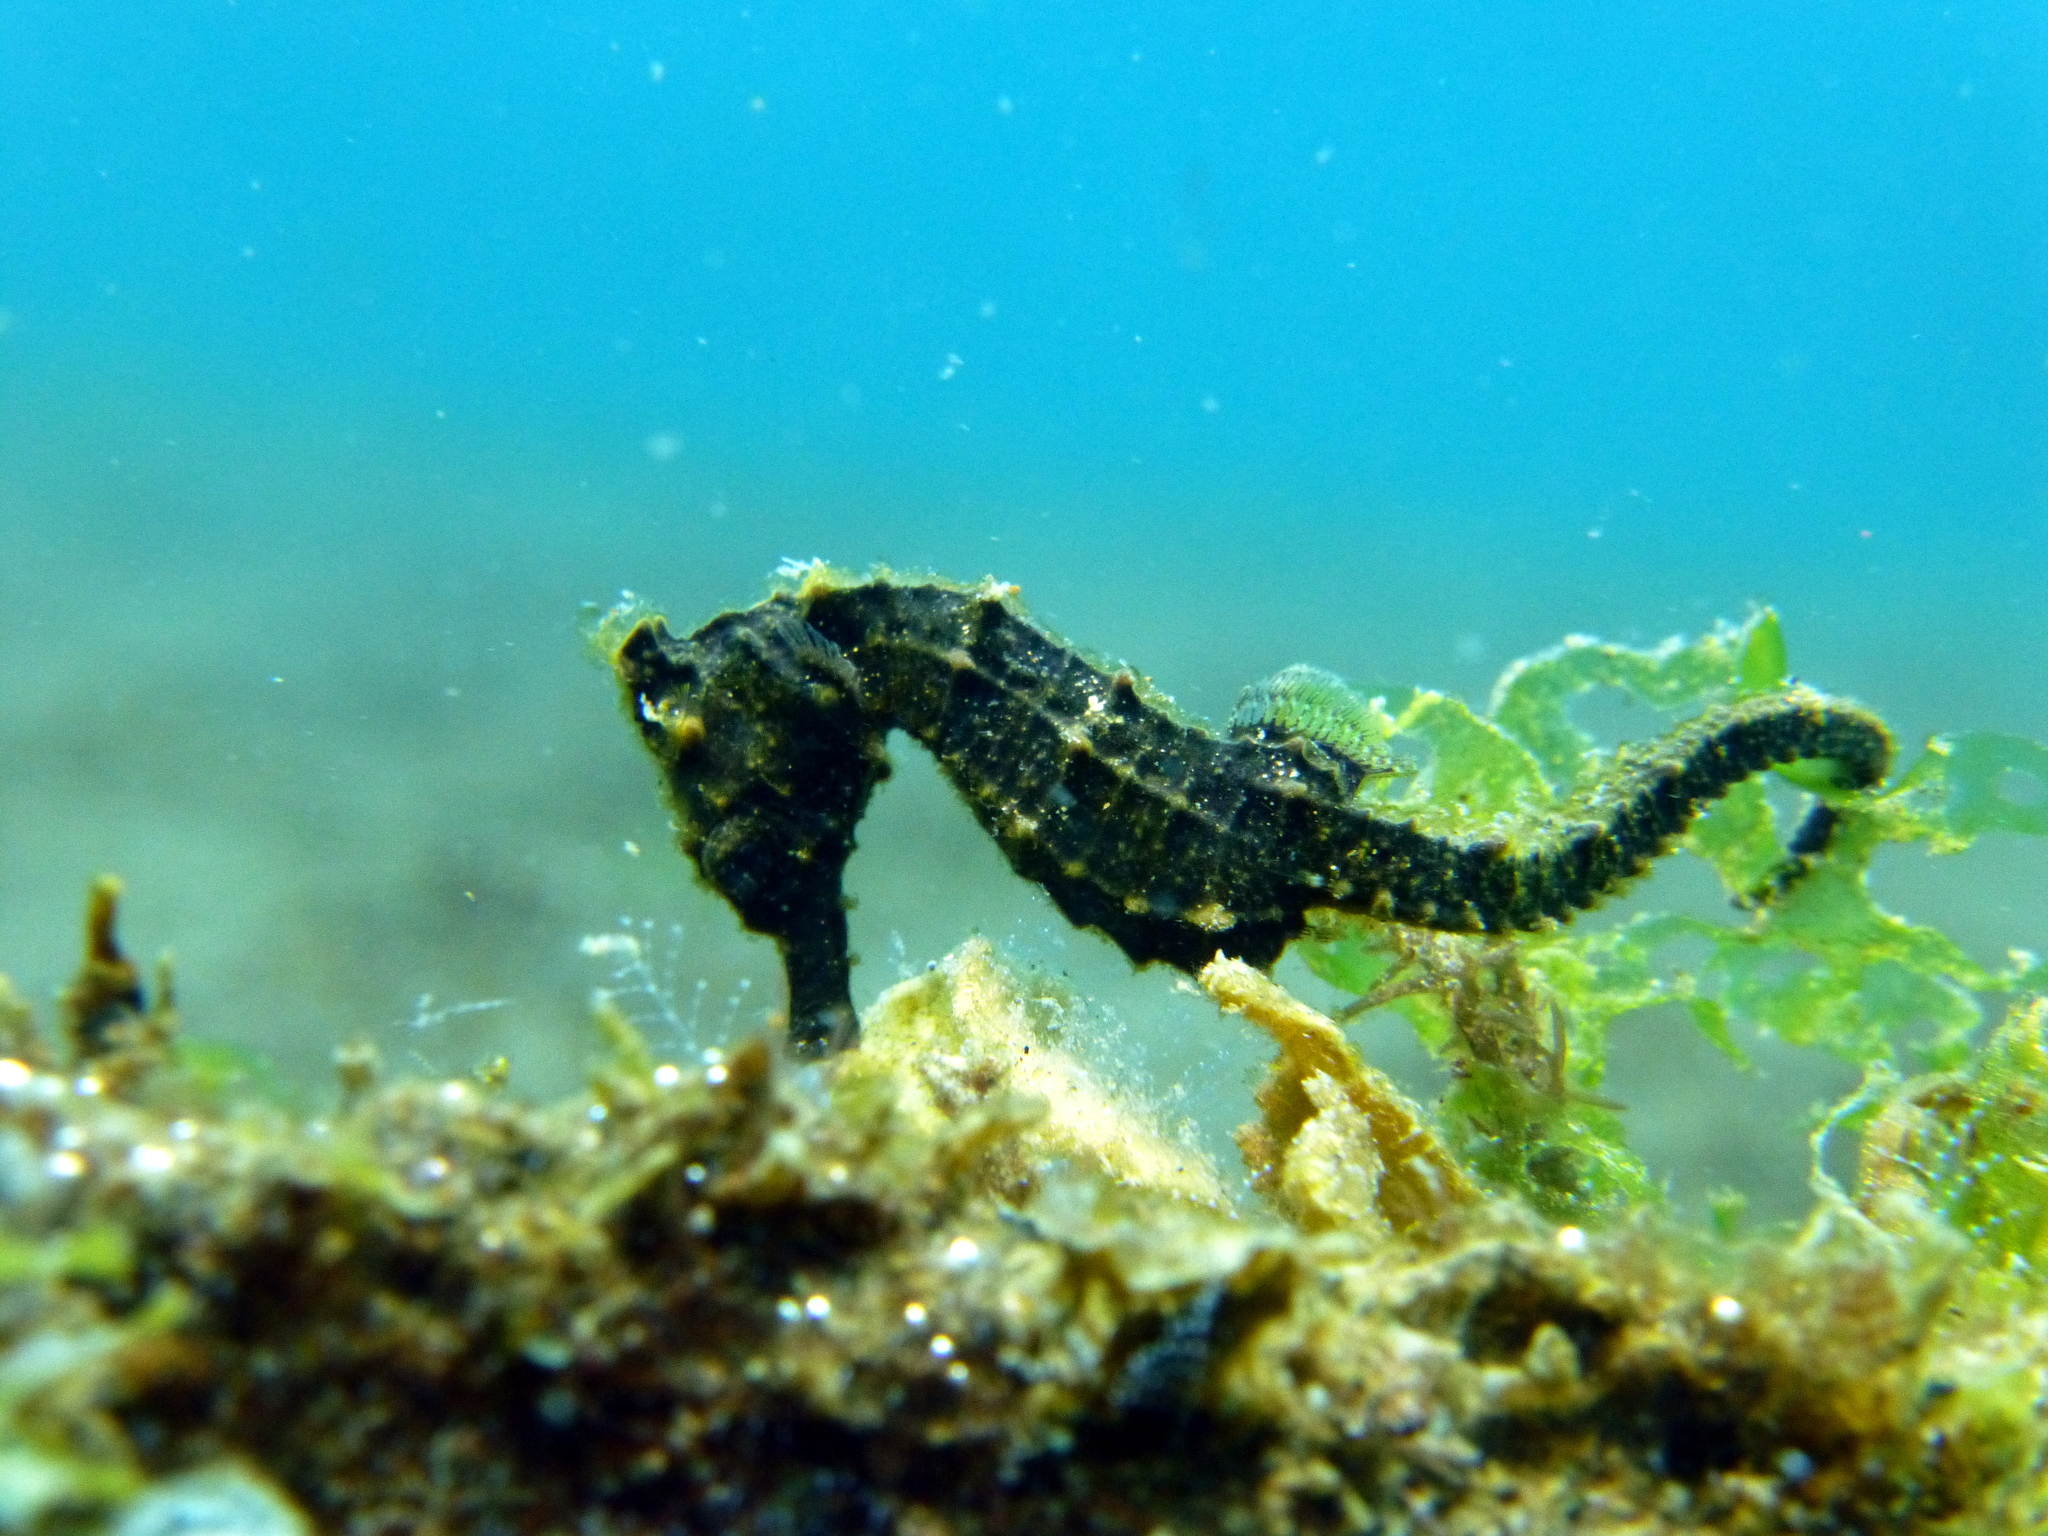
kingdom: Animalia
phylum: Chordata
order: Syngnathiformes
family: Syngnathidae
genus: Hippocampus
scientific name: Hippocampus kuda
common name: Spotted seahorse
